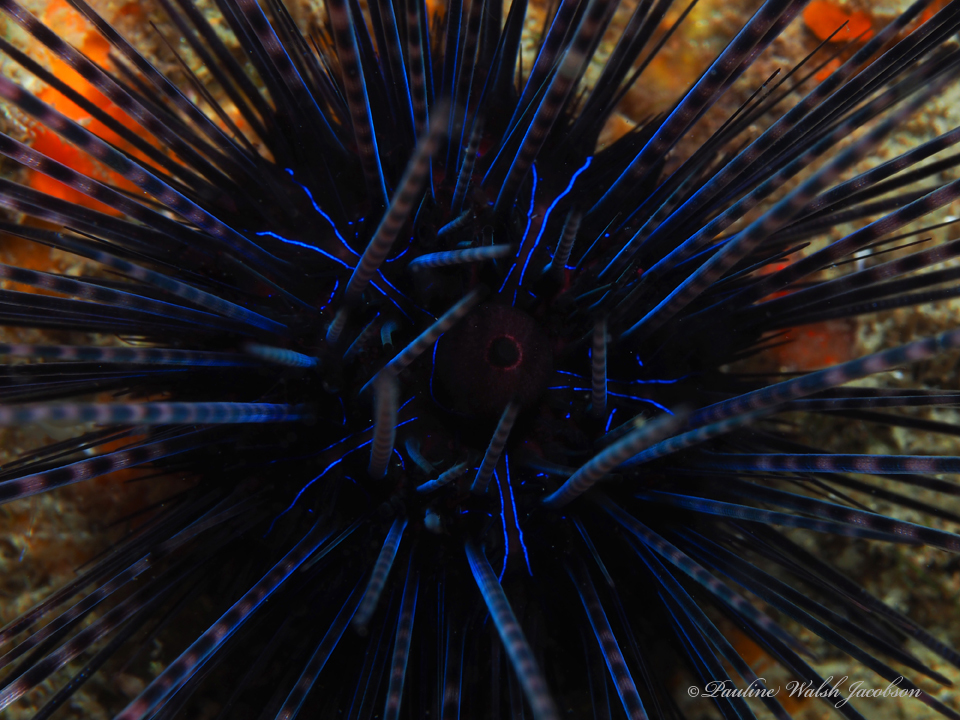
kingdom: Animalia
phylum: Echinodermata
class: Echinoidea
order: Diadematoida
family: Diadematidae
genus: Diadema
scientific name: Diadema antillarum
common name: Spiny urchin
